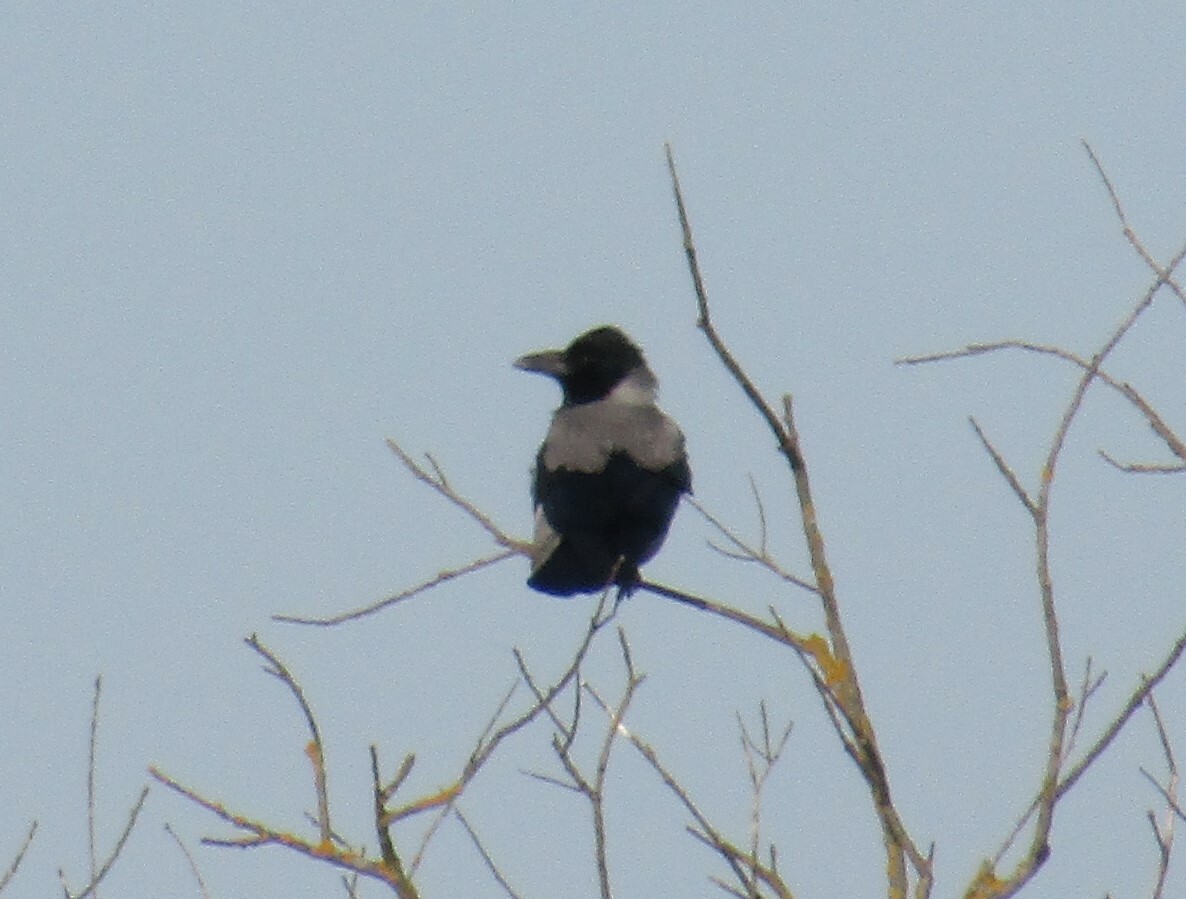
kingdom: Animalia
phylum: Chordata
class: Aves
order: Passeriformes
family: Corvidae
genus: Corvus
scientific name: Corvus cornix
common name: Hooded crow
